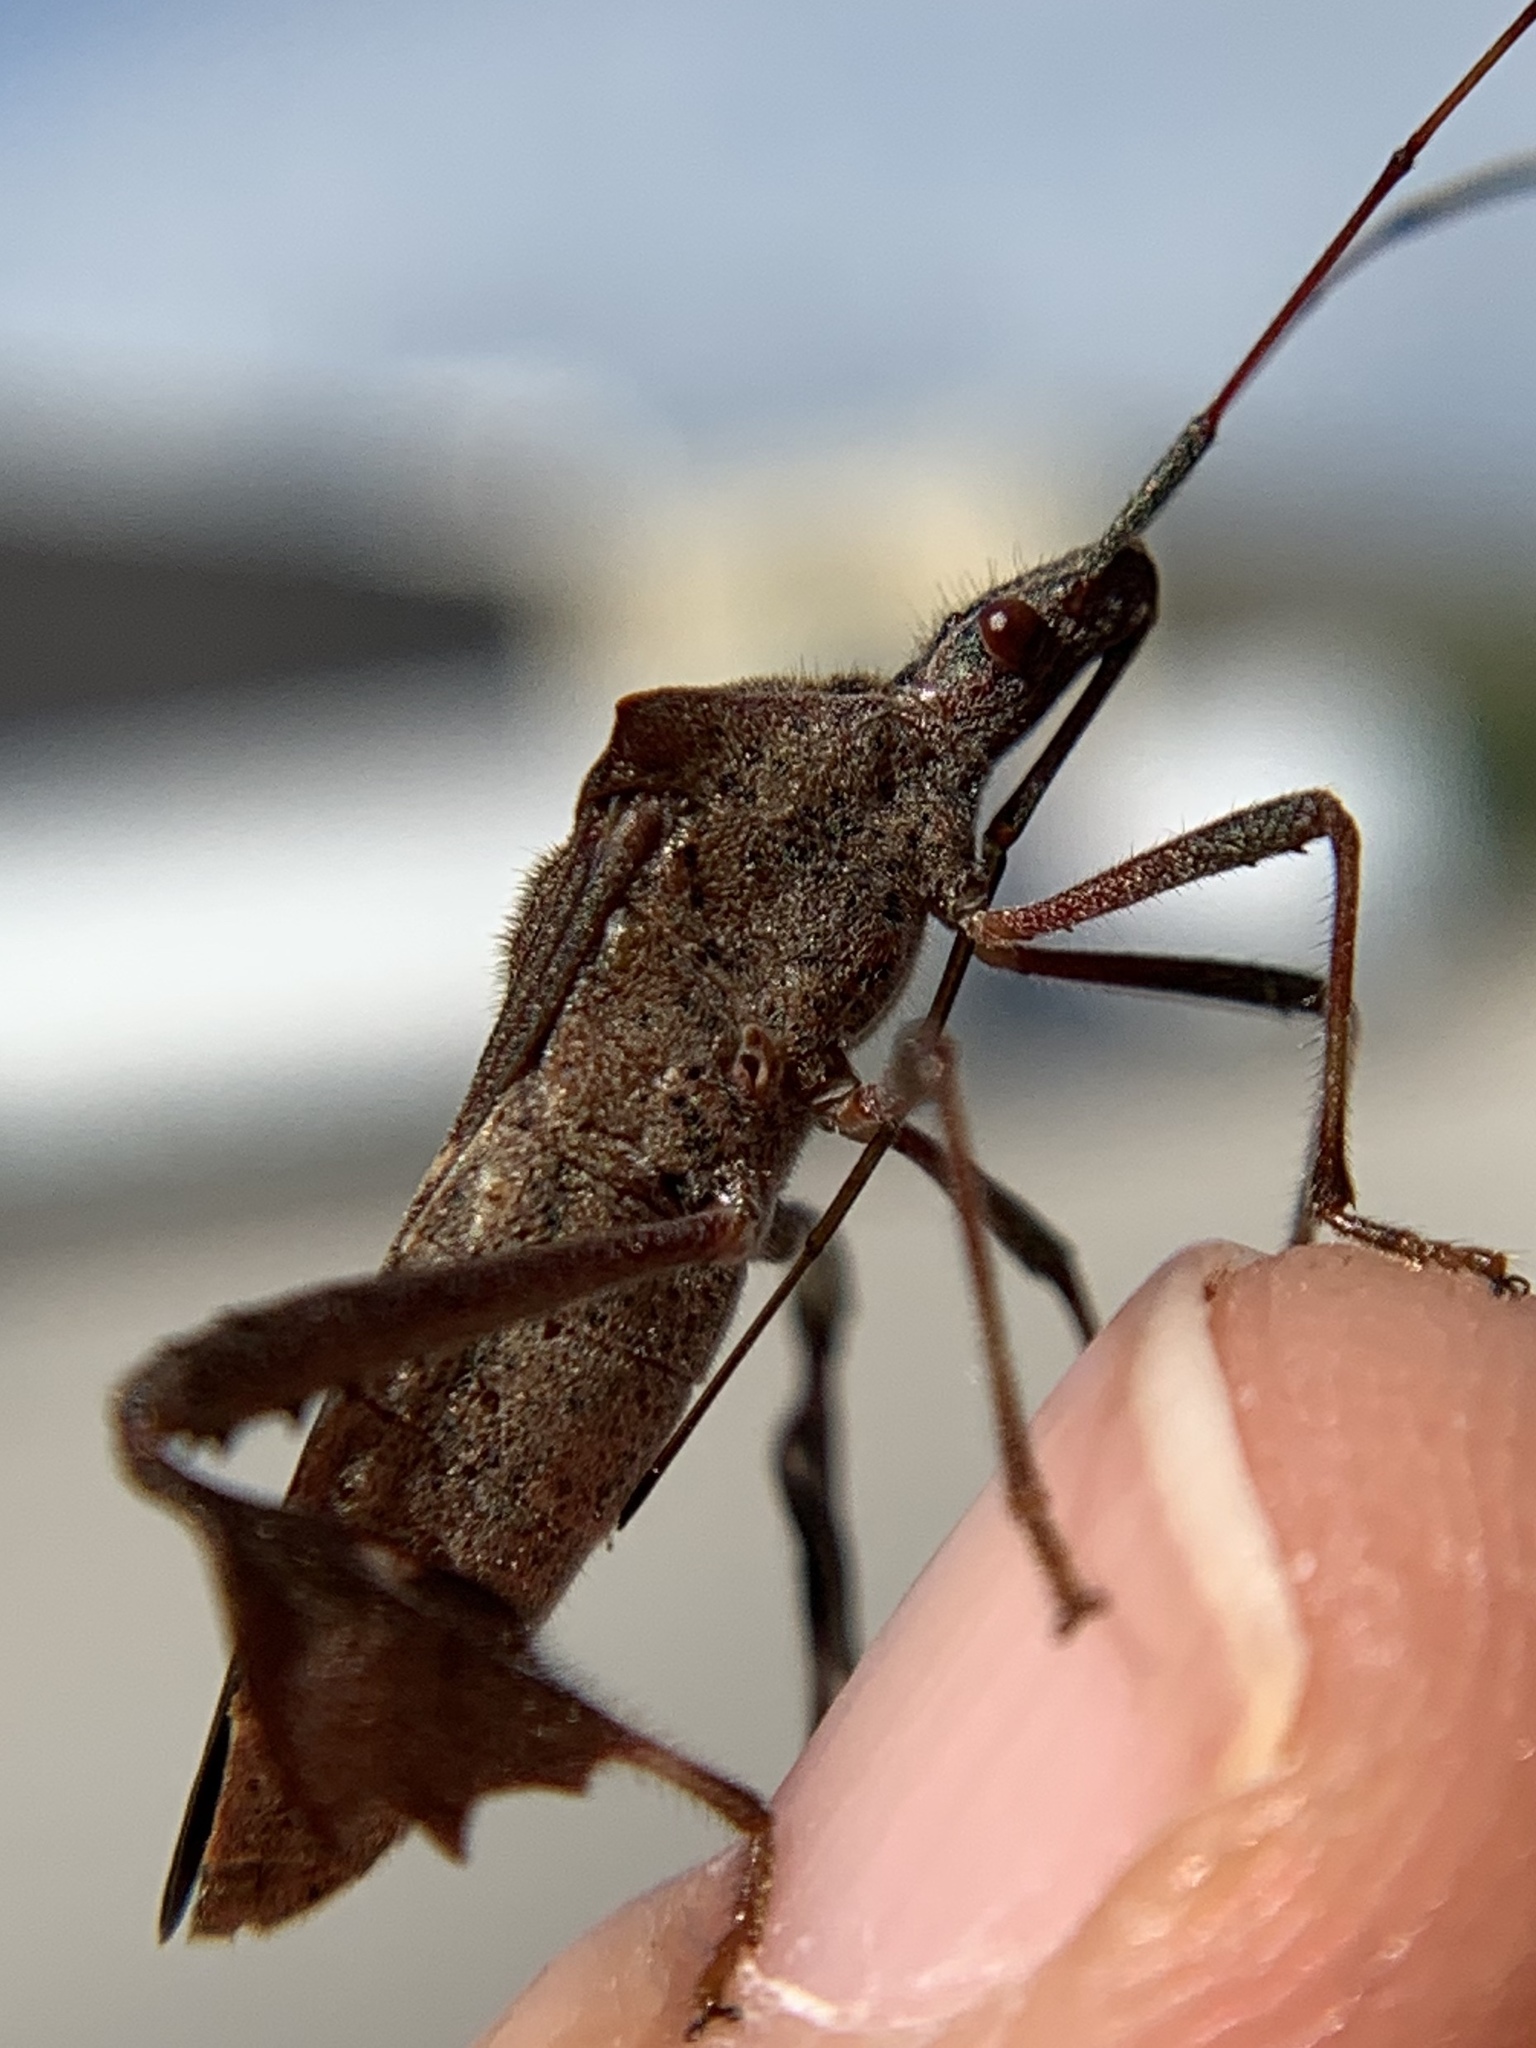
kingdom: Animalia
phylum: Arthropoda
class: Insecta
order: Hemiptera
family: Coreidae
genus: Leptoglossus
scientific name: Leptoglossus concolor
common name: Leaf-footed bug
